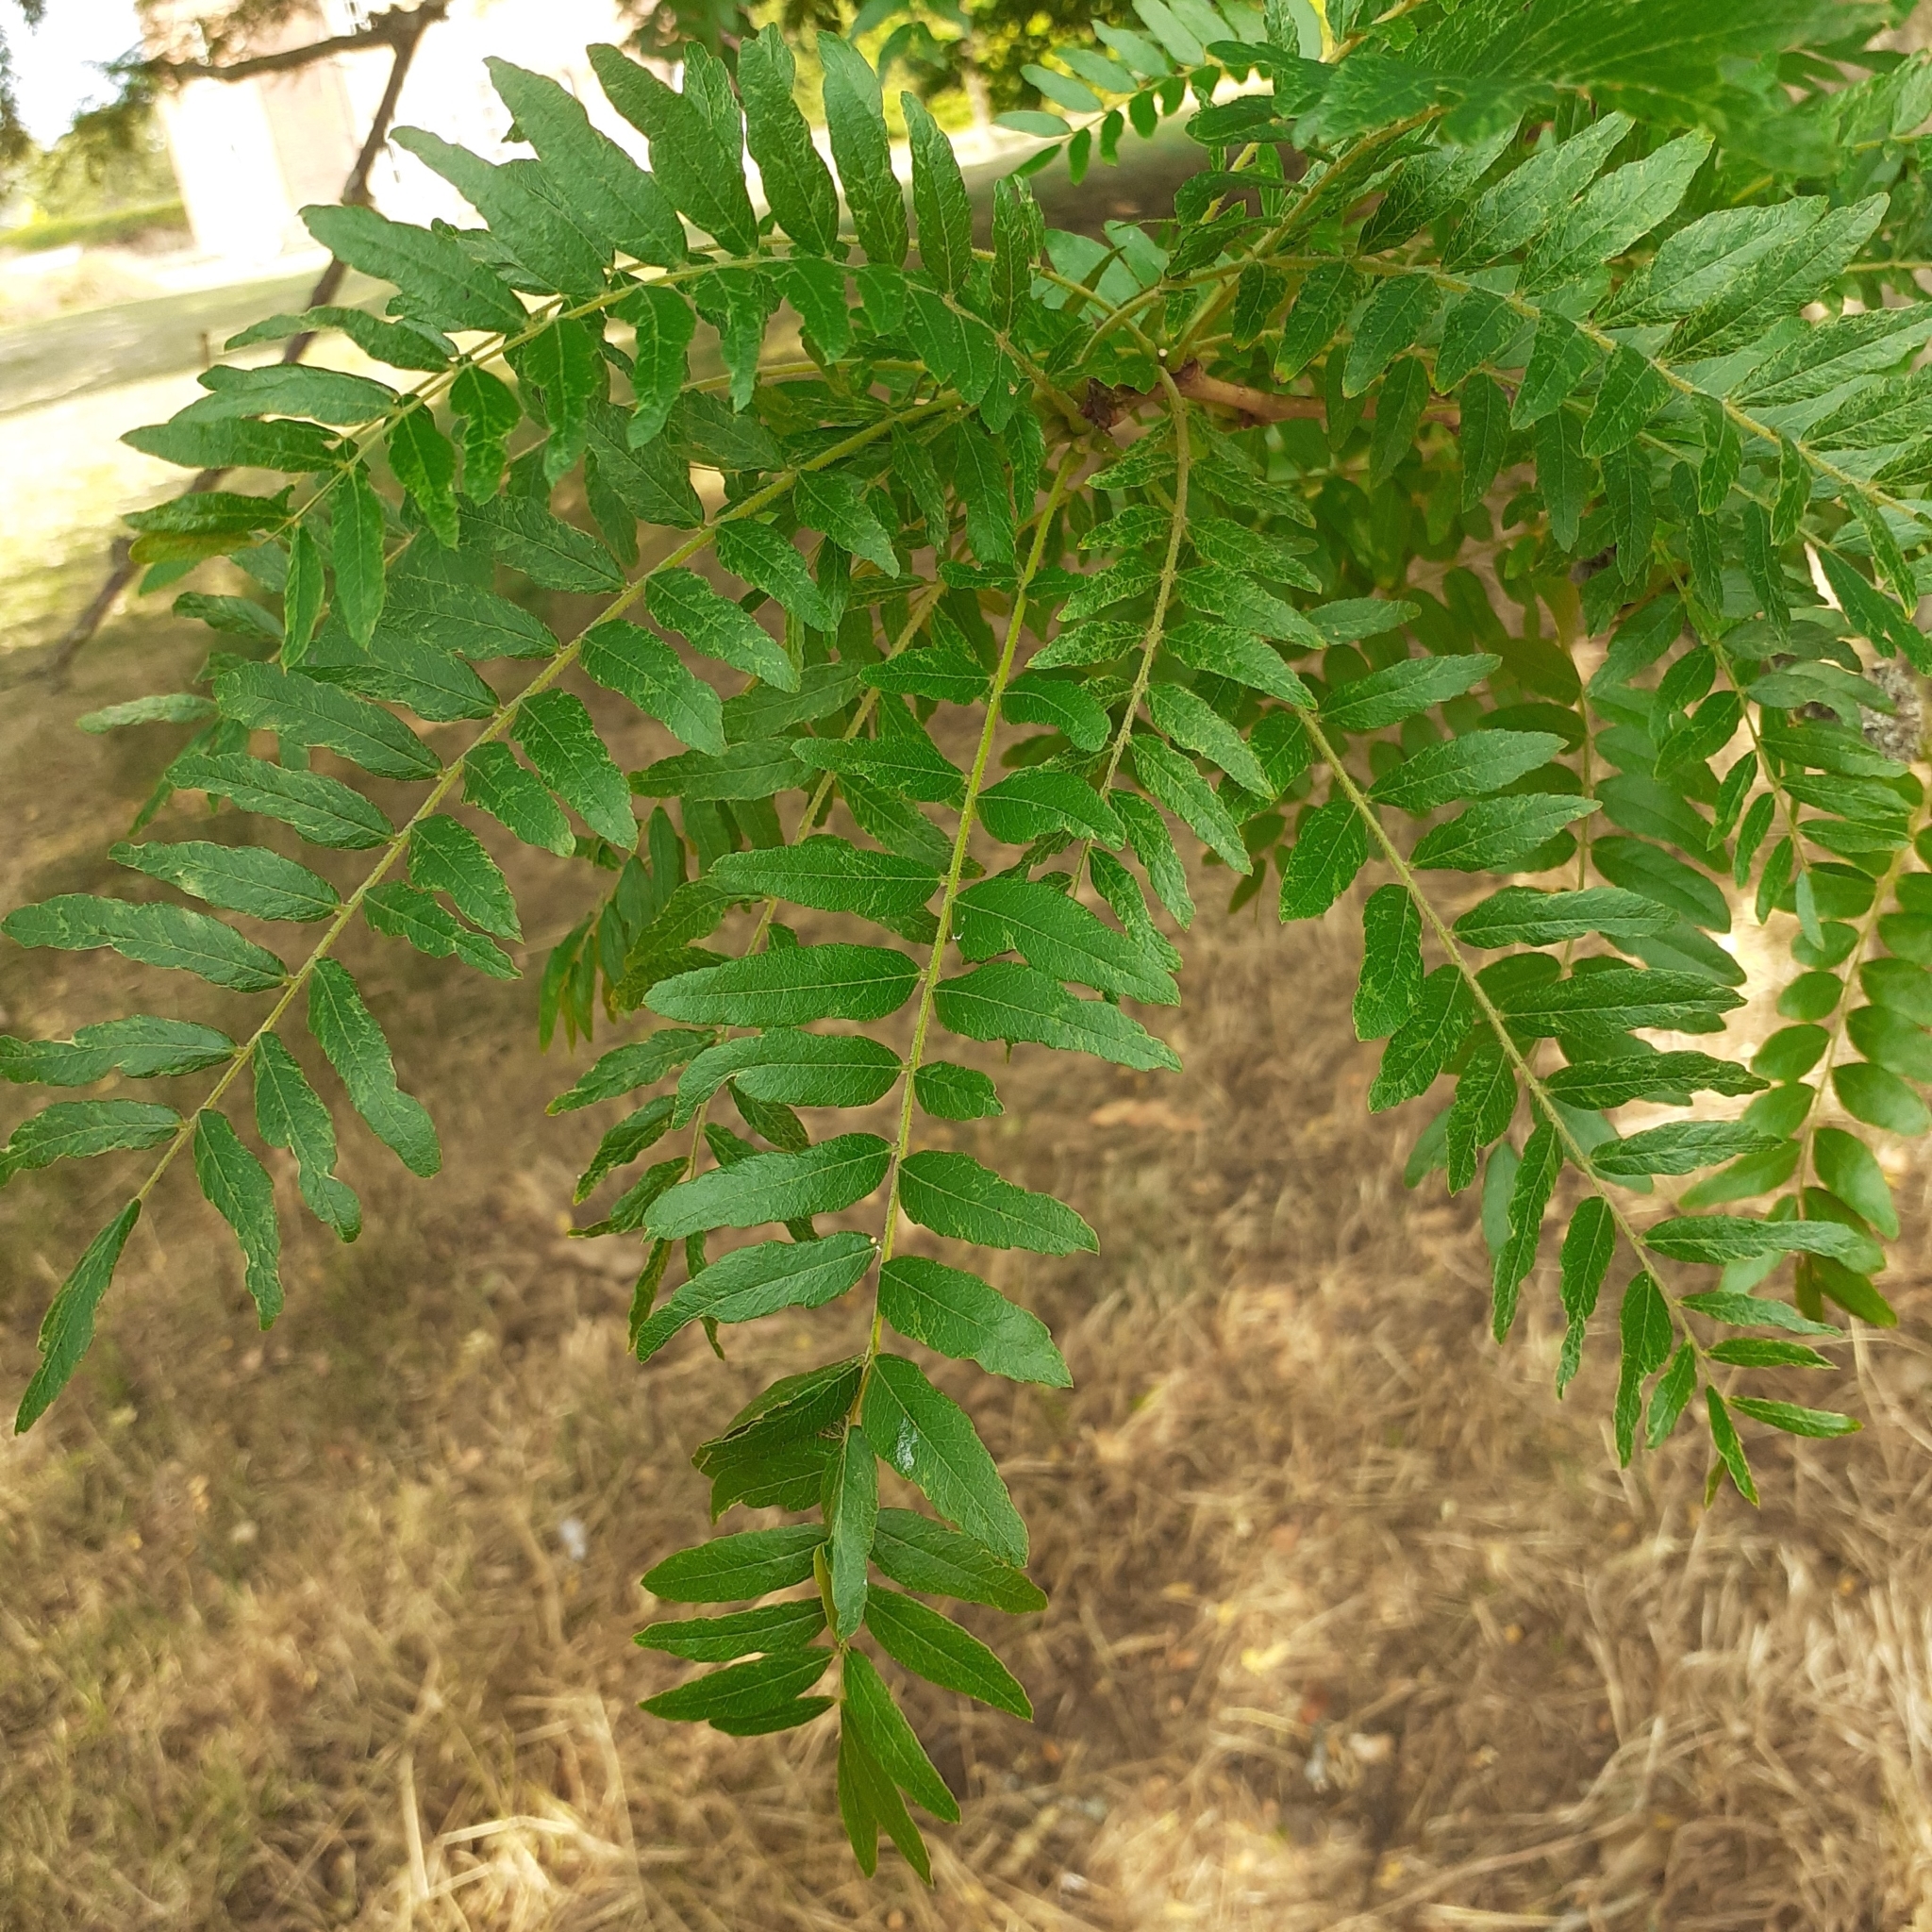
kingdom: Plantae
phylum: Tracheophyta
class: Magnoliopsida
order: Fabales
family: Fabaceae
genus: Gleditsia
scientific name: Gleditsia triacanthos
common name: Common honeylocust
